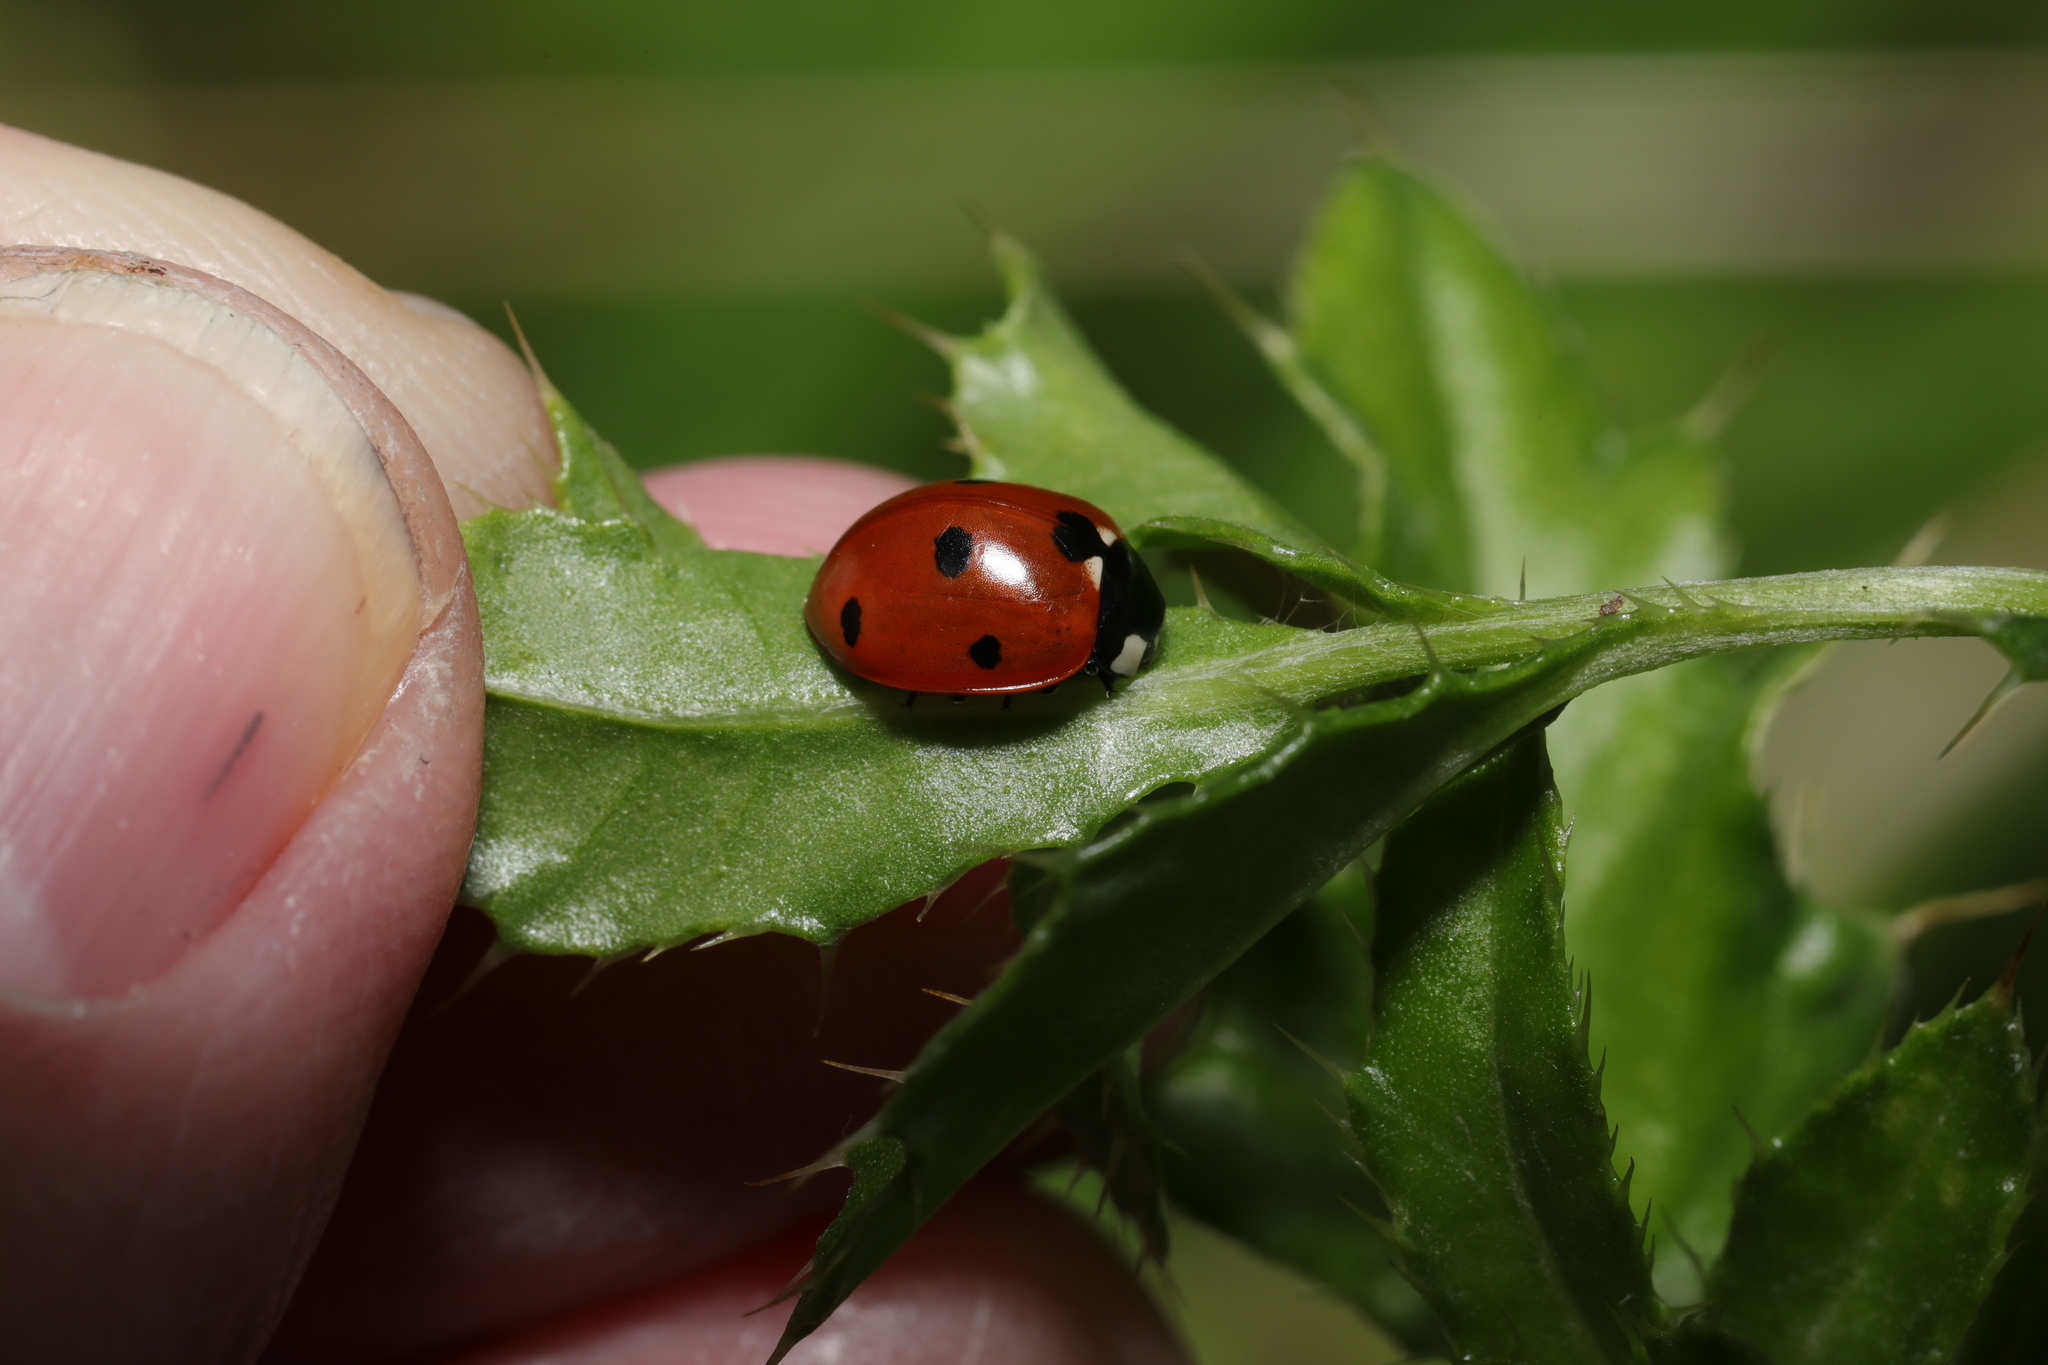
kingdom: Animalia
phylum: Arthropoda
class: Insecta
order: Coleoptera
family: Coccinellidae
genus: Coccinella
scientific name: Coccinella septempunctata
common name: Sevenspotted lady beetle
